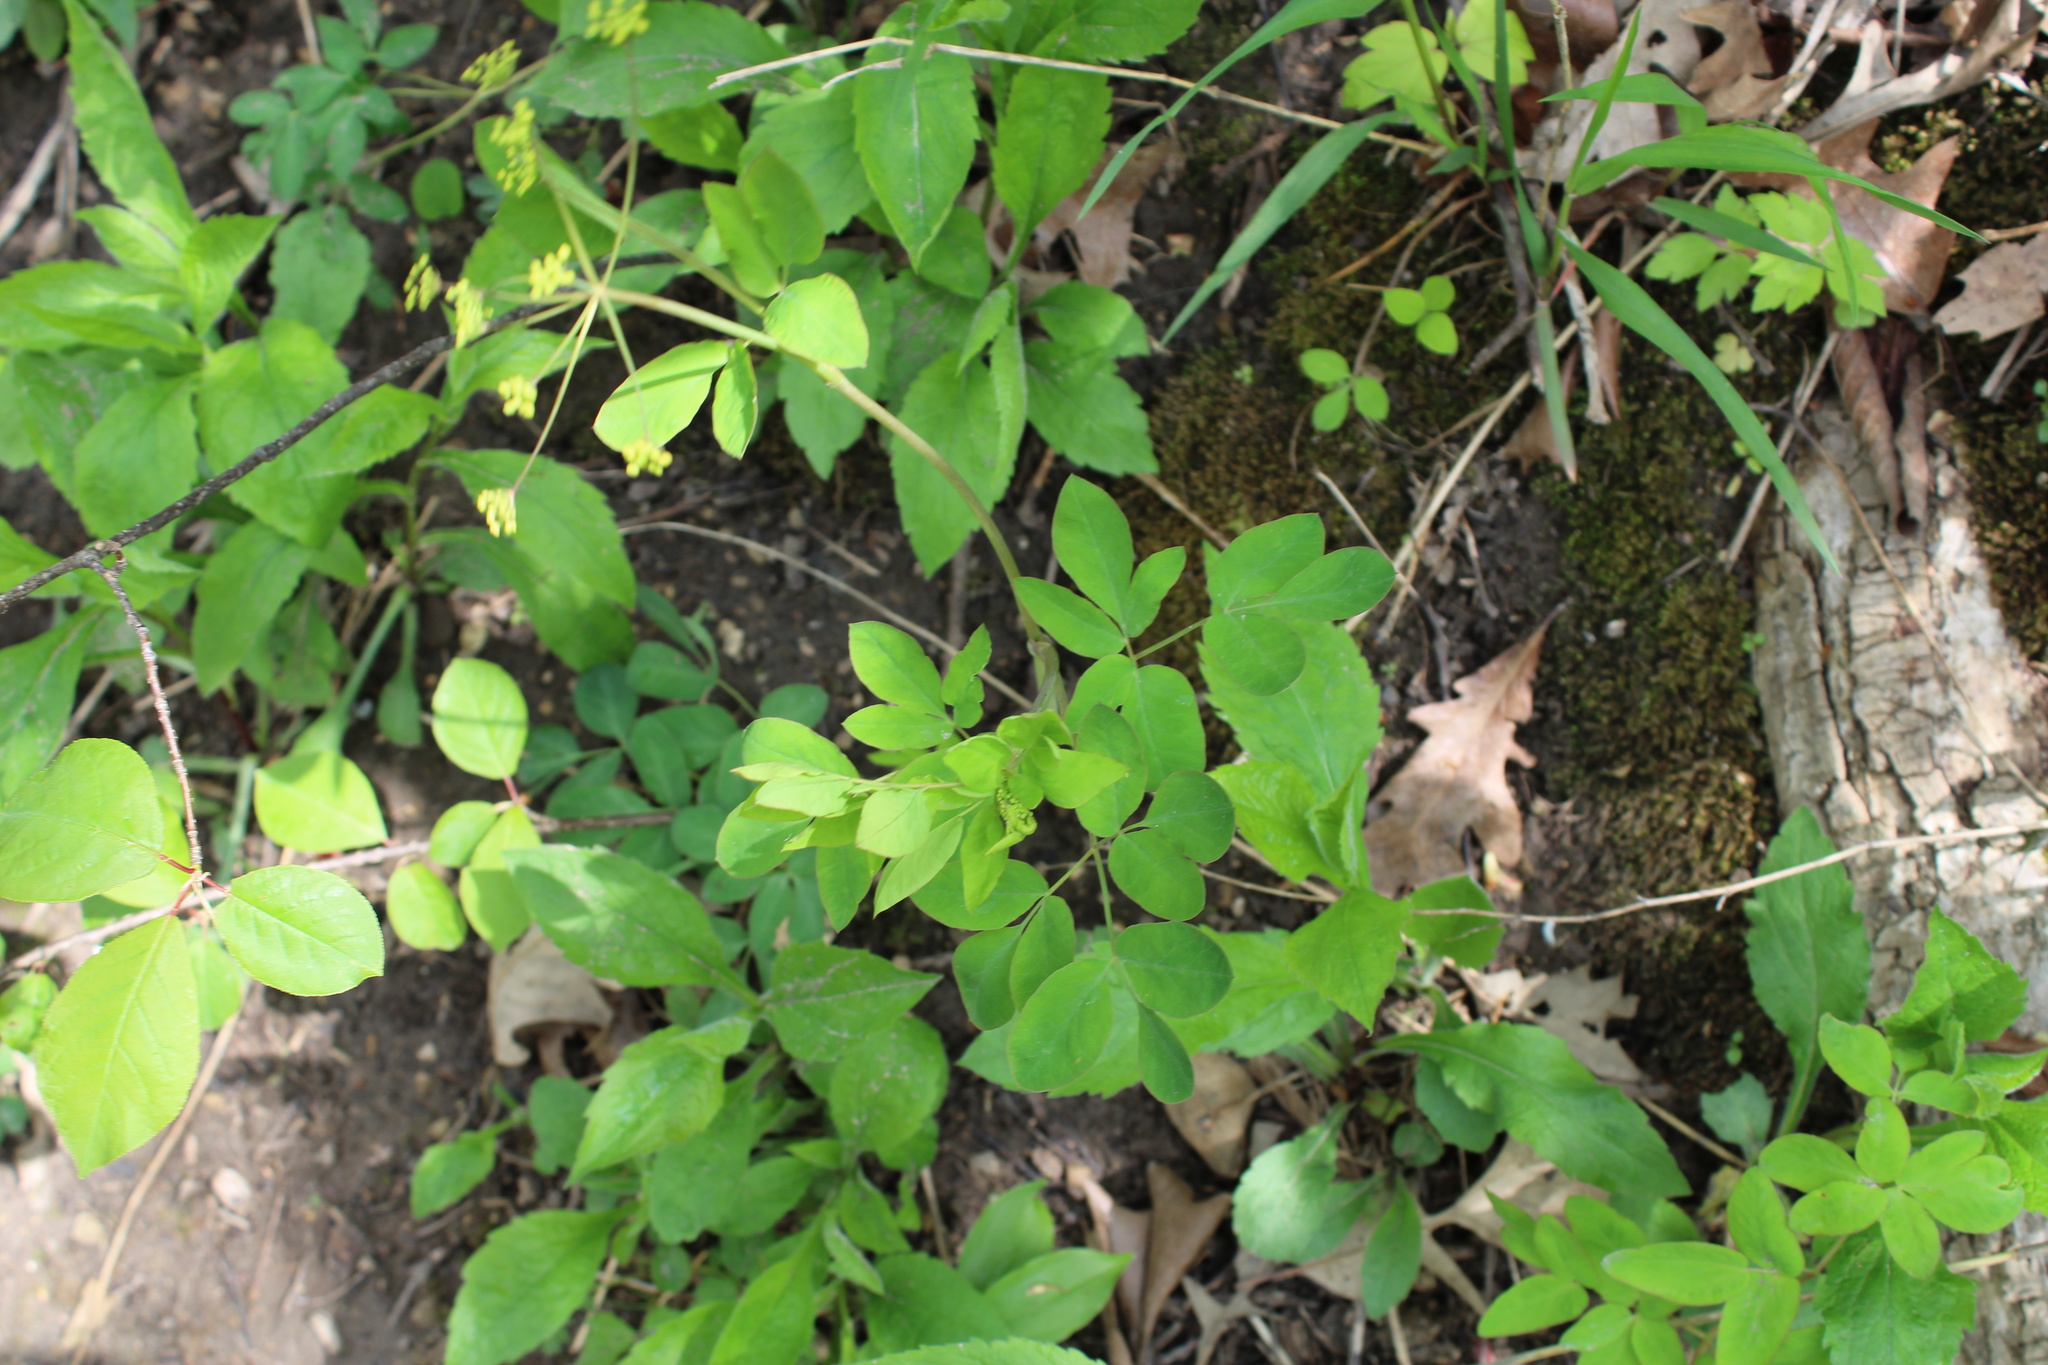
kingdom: Plantae
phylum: Tracheophyta
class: Magnoliopsida
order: Apiales
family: Apiaceae
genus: Taenidia
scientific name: Taenidia integerrima
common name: Golden alexander
